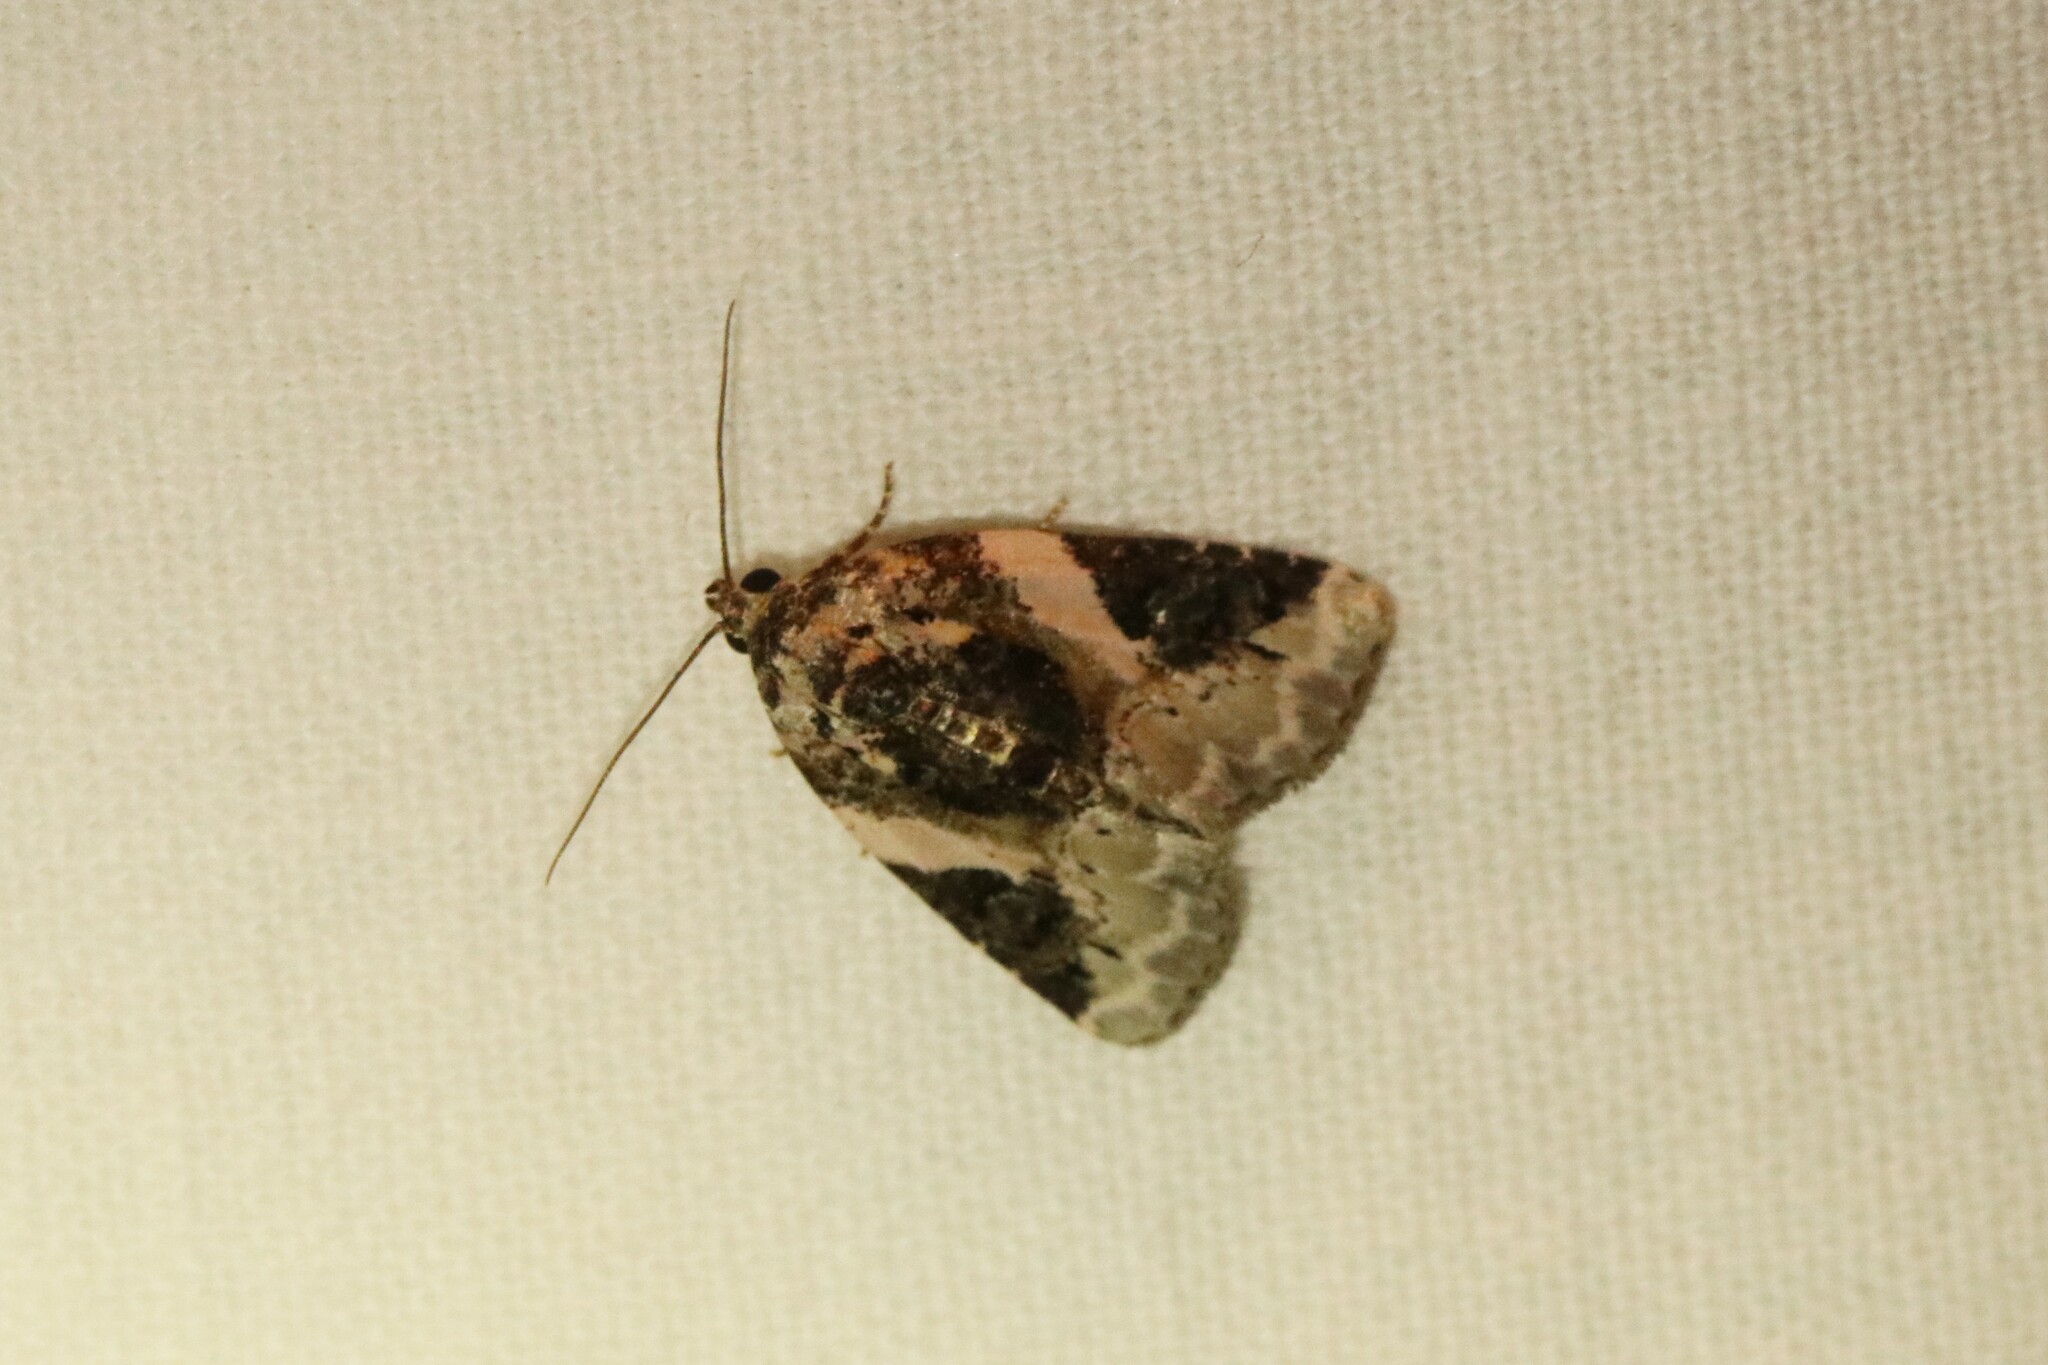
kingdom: Animalia
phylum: Arthropoda
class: Insecta
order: Lepidoptera
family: Noctuidae
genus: Pseudeustrotia
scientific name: Pseudeustrotia carneola
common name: Pink-barred lithacodia moth
